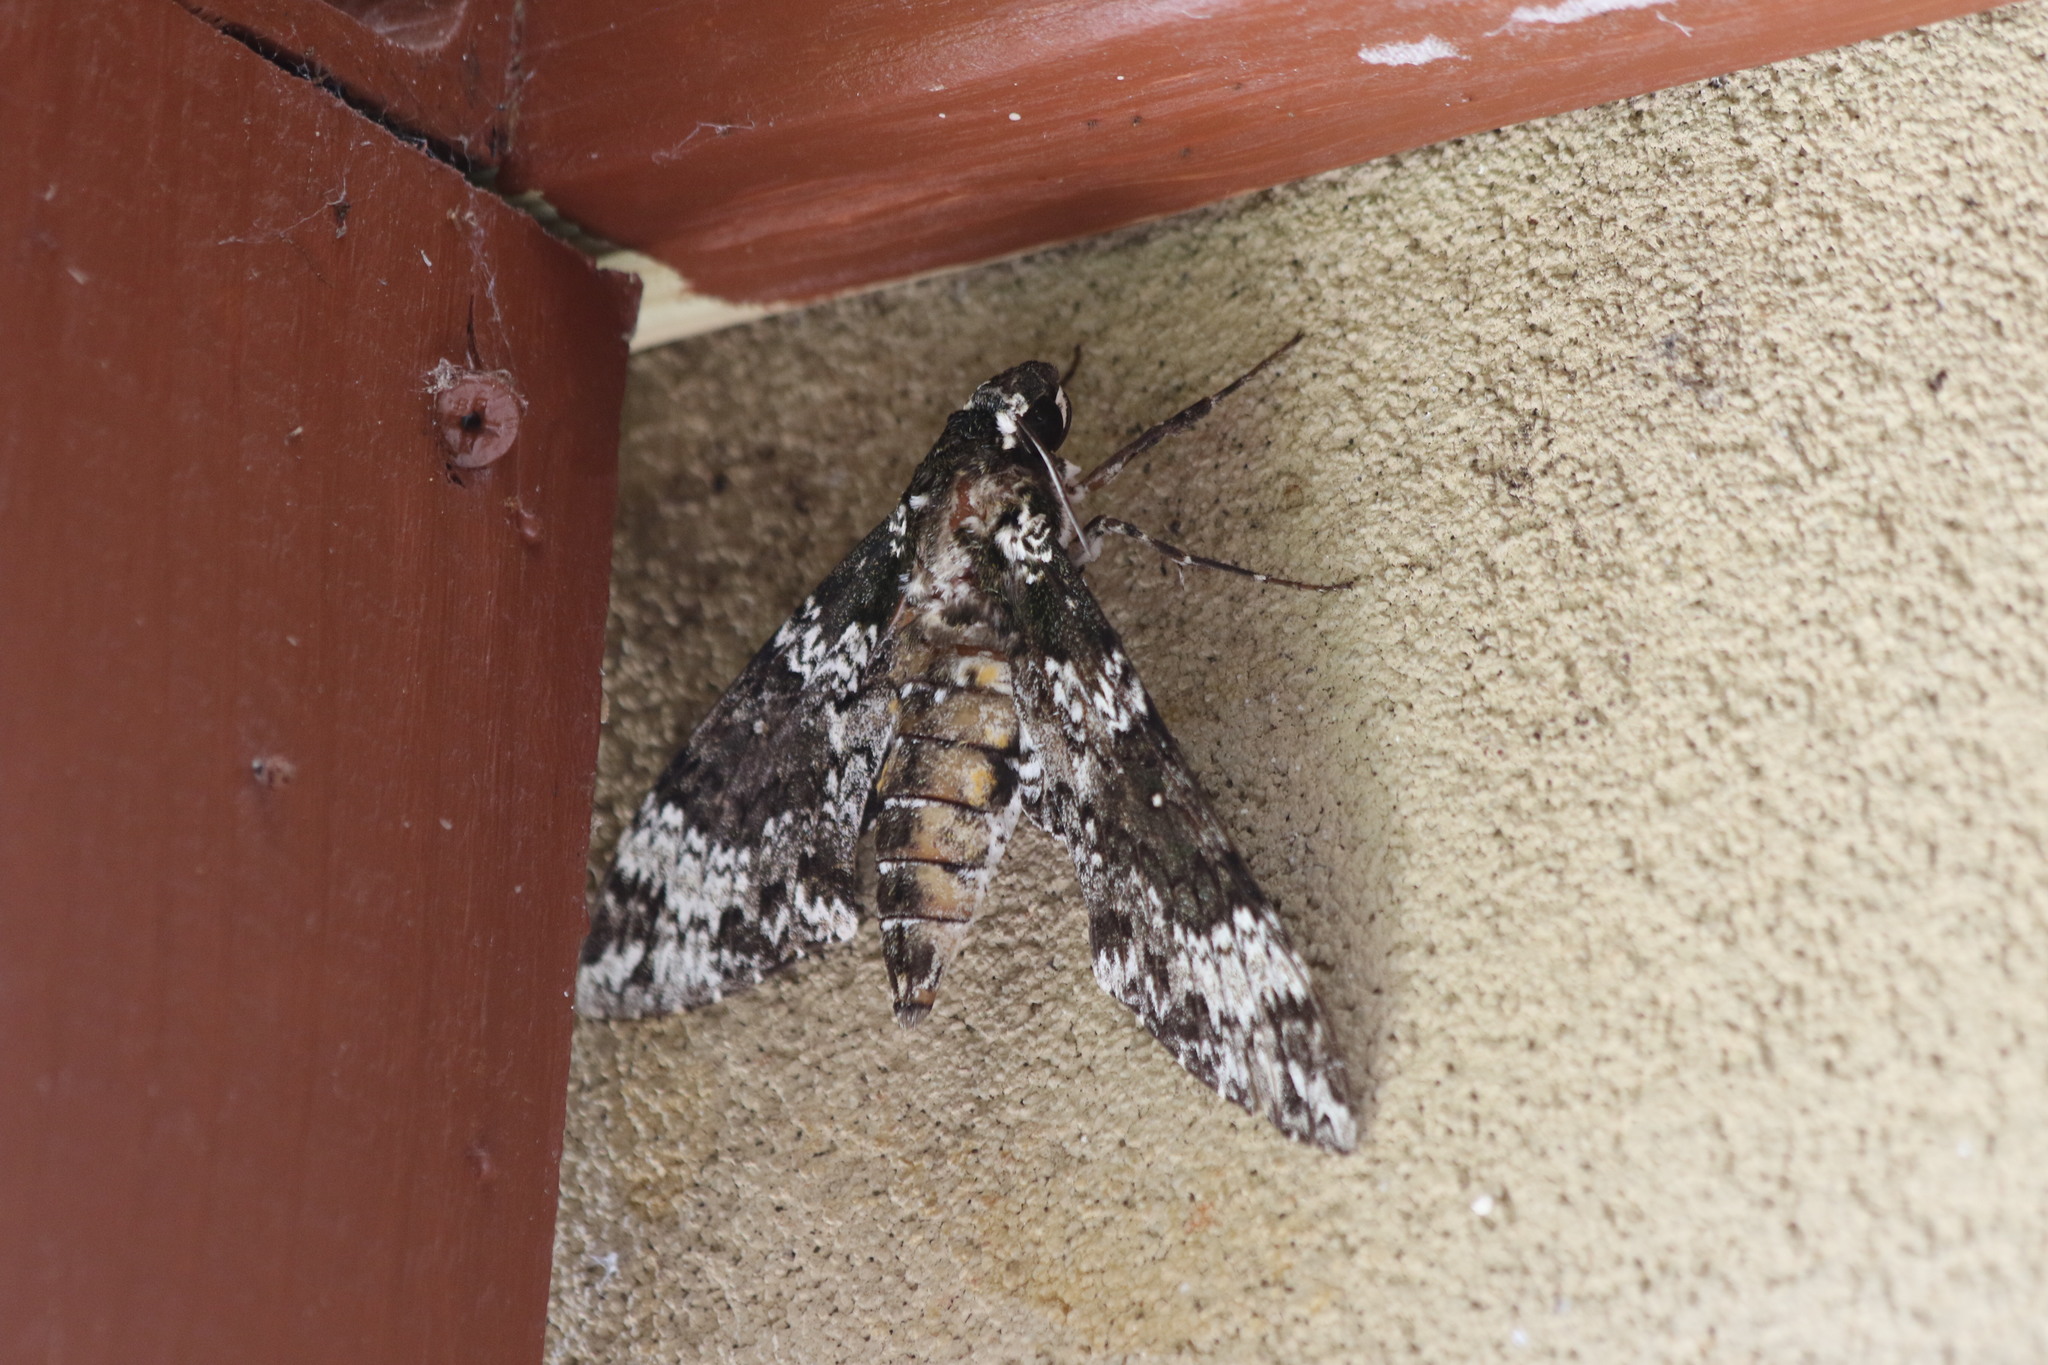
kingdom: Animalia
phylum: Arthropoda
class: Insecta
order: Lepidoptera
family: Sphingidae
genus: Manduca
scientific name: Manduca rustica
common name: Rustic sphinx
